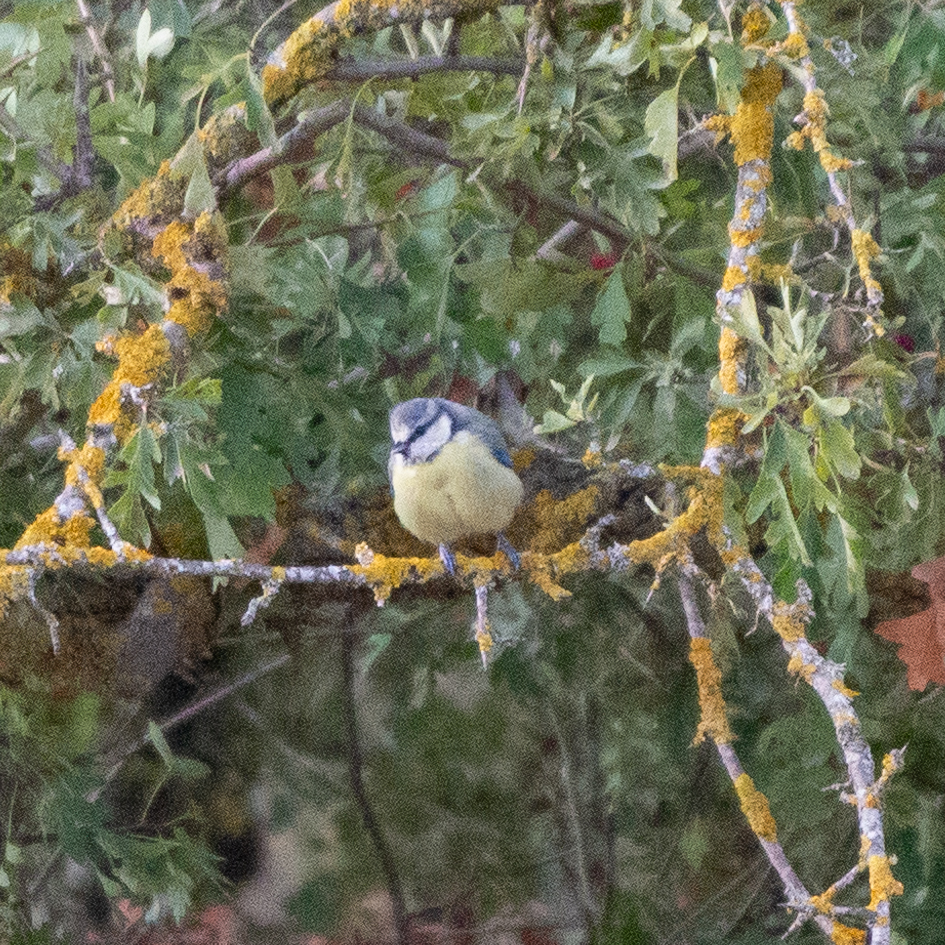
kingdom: Animalia
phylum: Chordata
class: Aves
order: Passeriformes
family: Paridae
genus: Cyanistes
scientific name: Cyanistes caeruleus
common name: Eurasian blue tit
